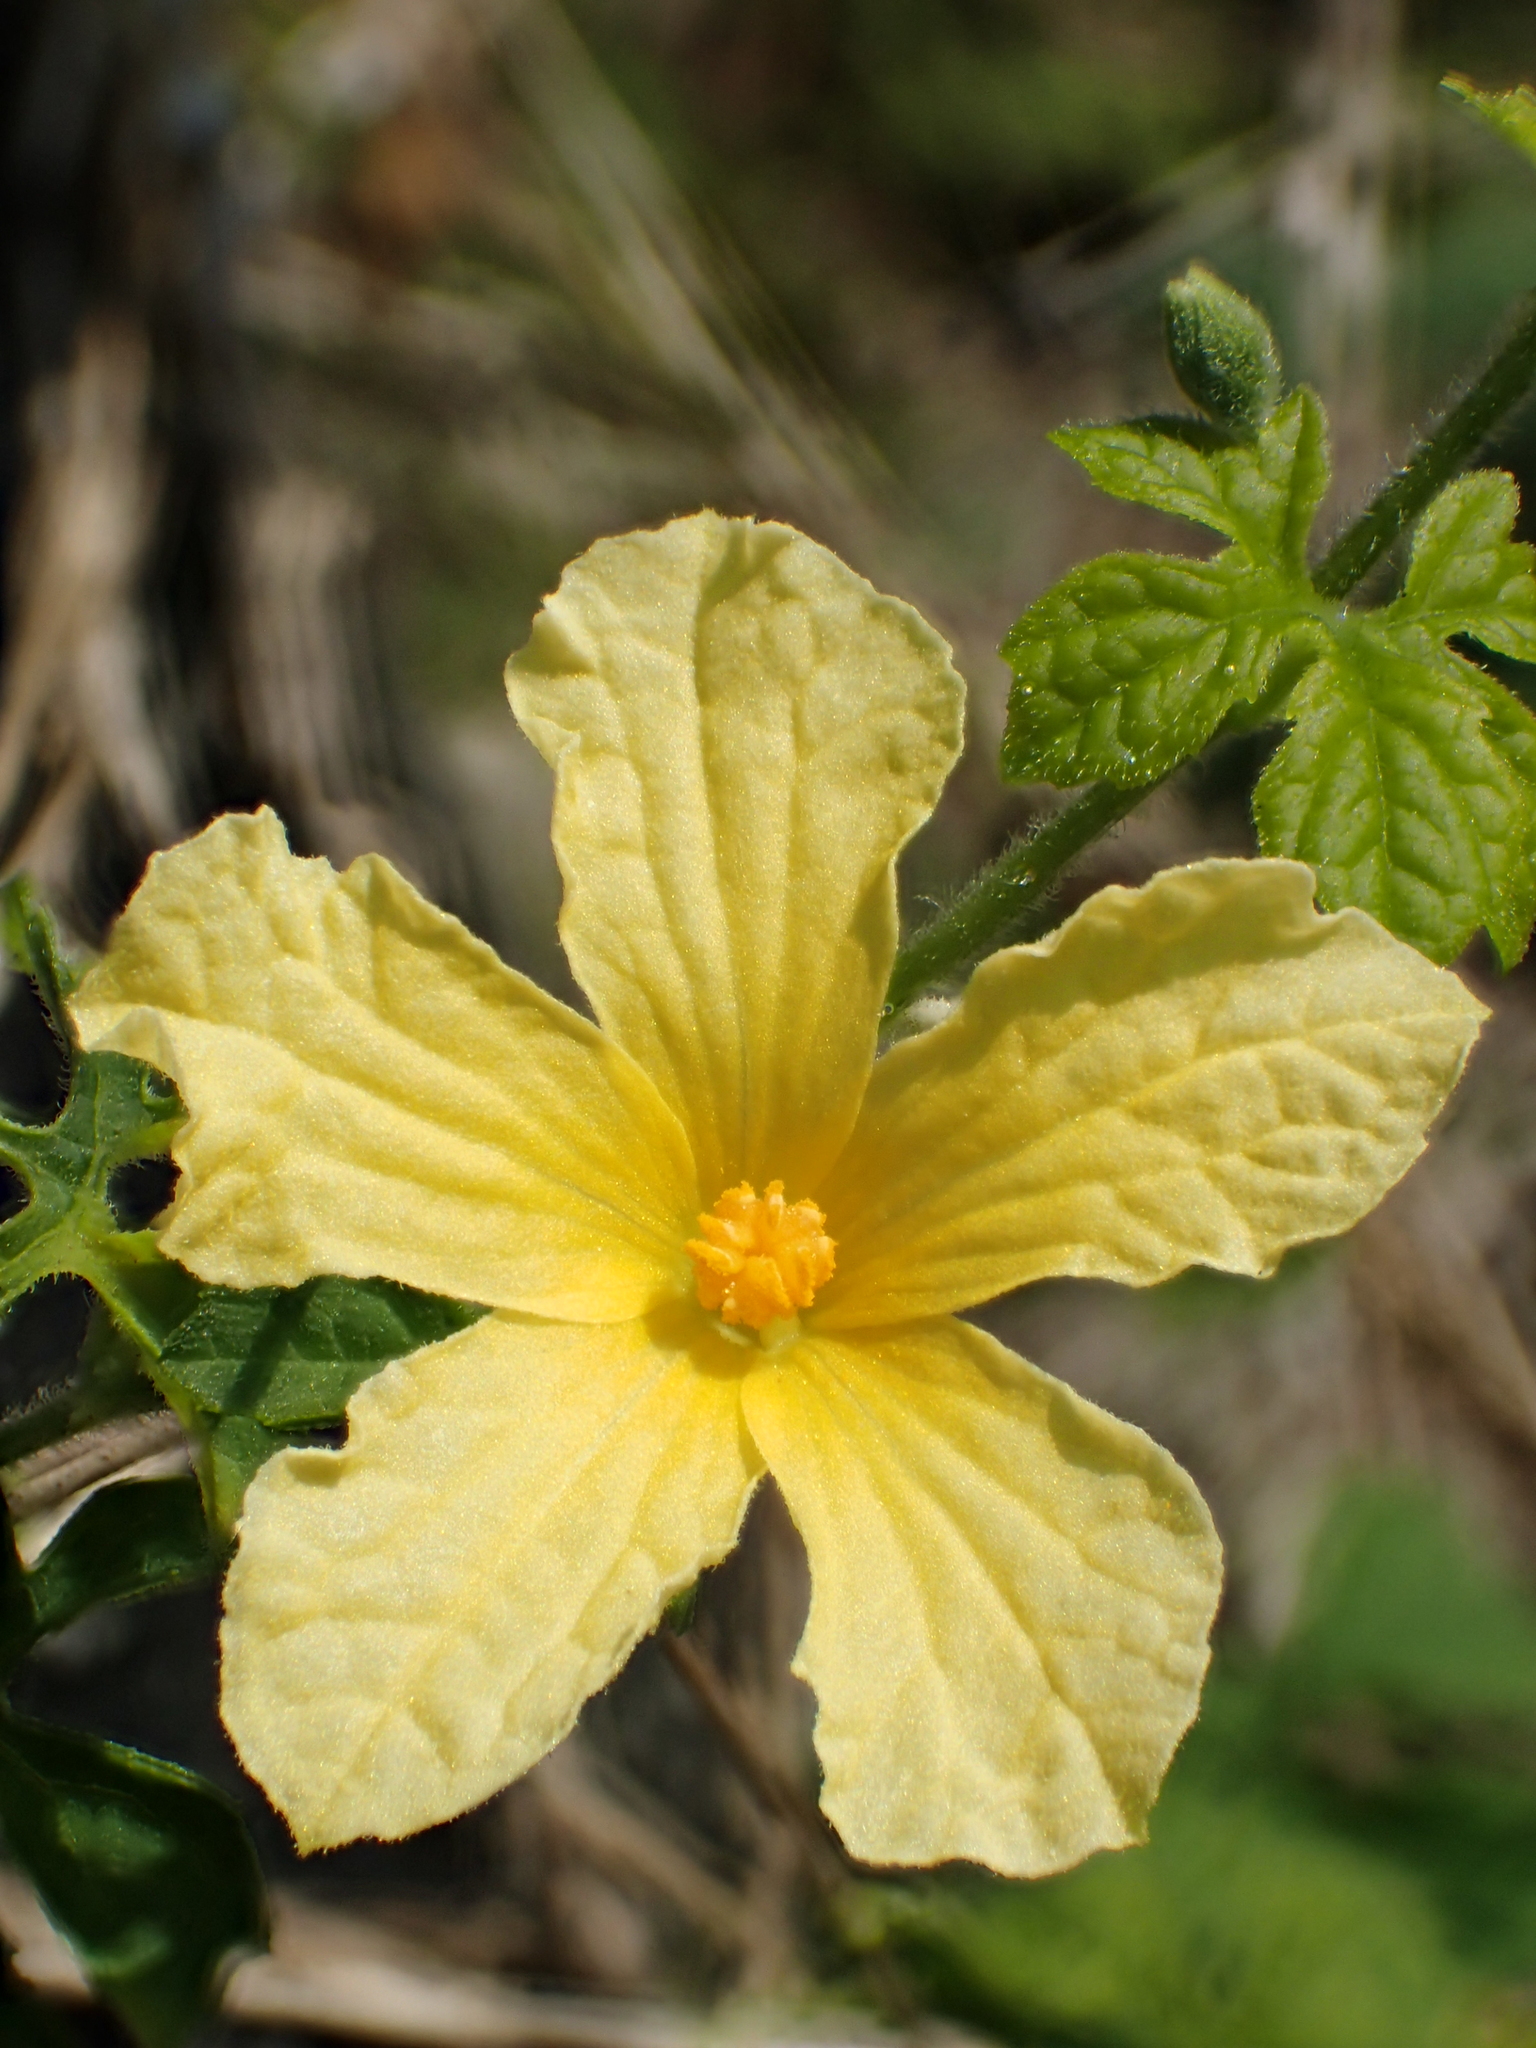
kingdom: Plantae
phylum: Tracheophyta
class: Magnoliopsida
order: Cucurbitales
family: Cucurbitaceae
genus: Momordica
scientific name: Momordica charantia
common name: Balsampear
